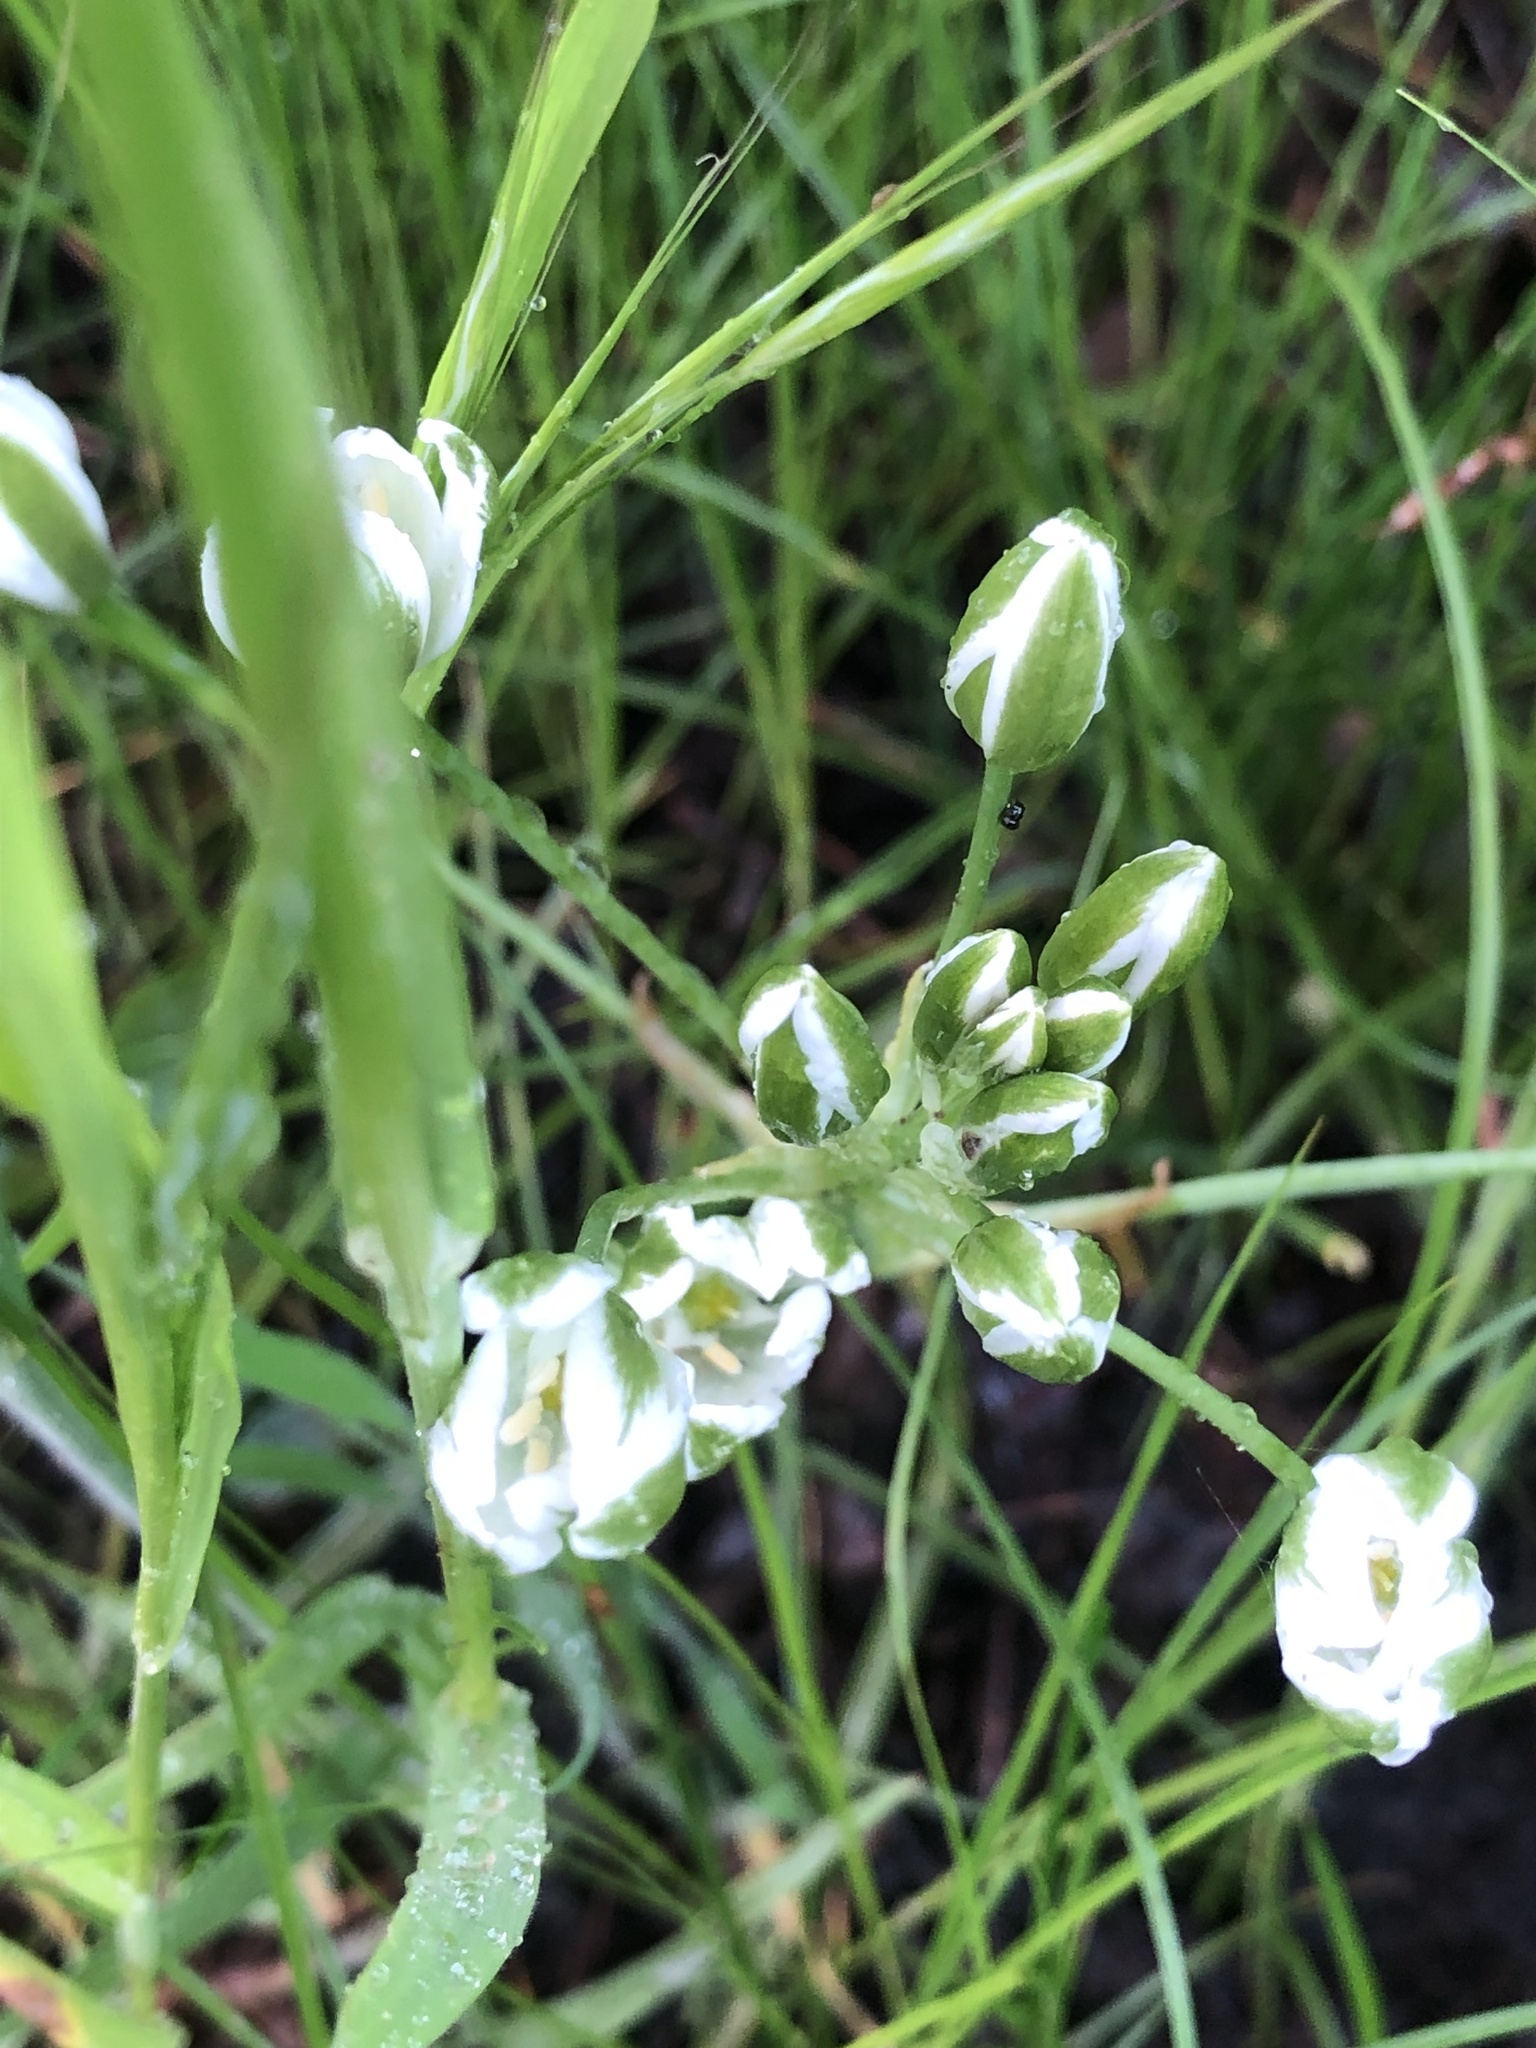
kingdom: Plantae
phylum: Tracheophyta
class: Liliopsida
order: Asparagales
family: Asparagaceae
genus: Ornithogalum
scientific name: Ornithogalum orthophyllum
